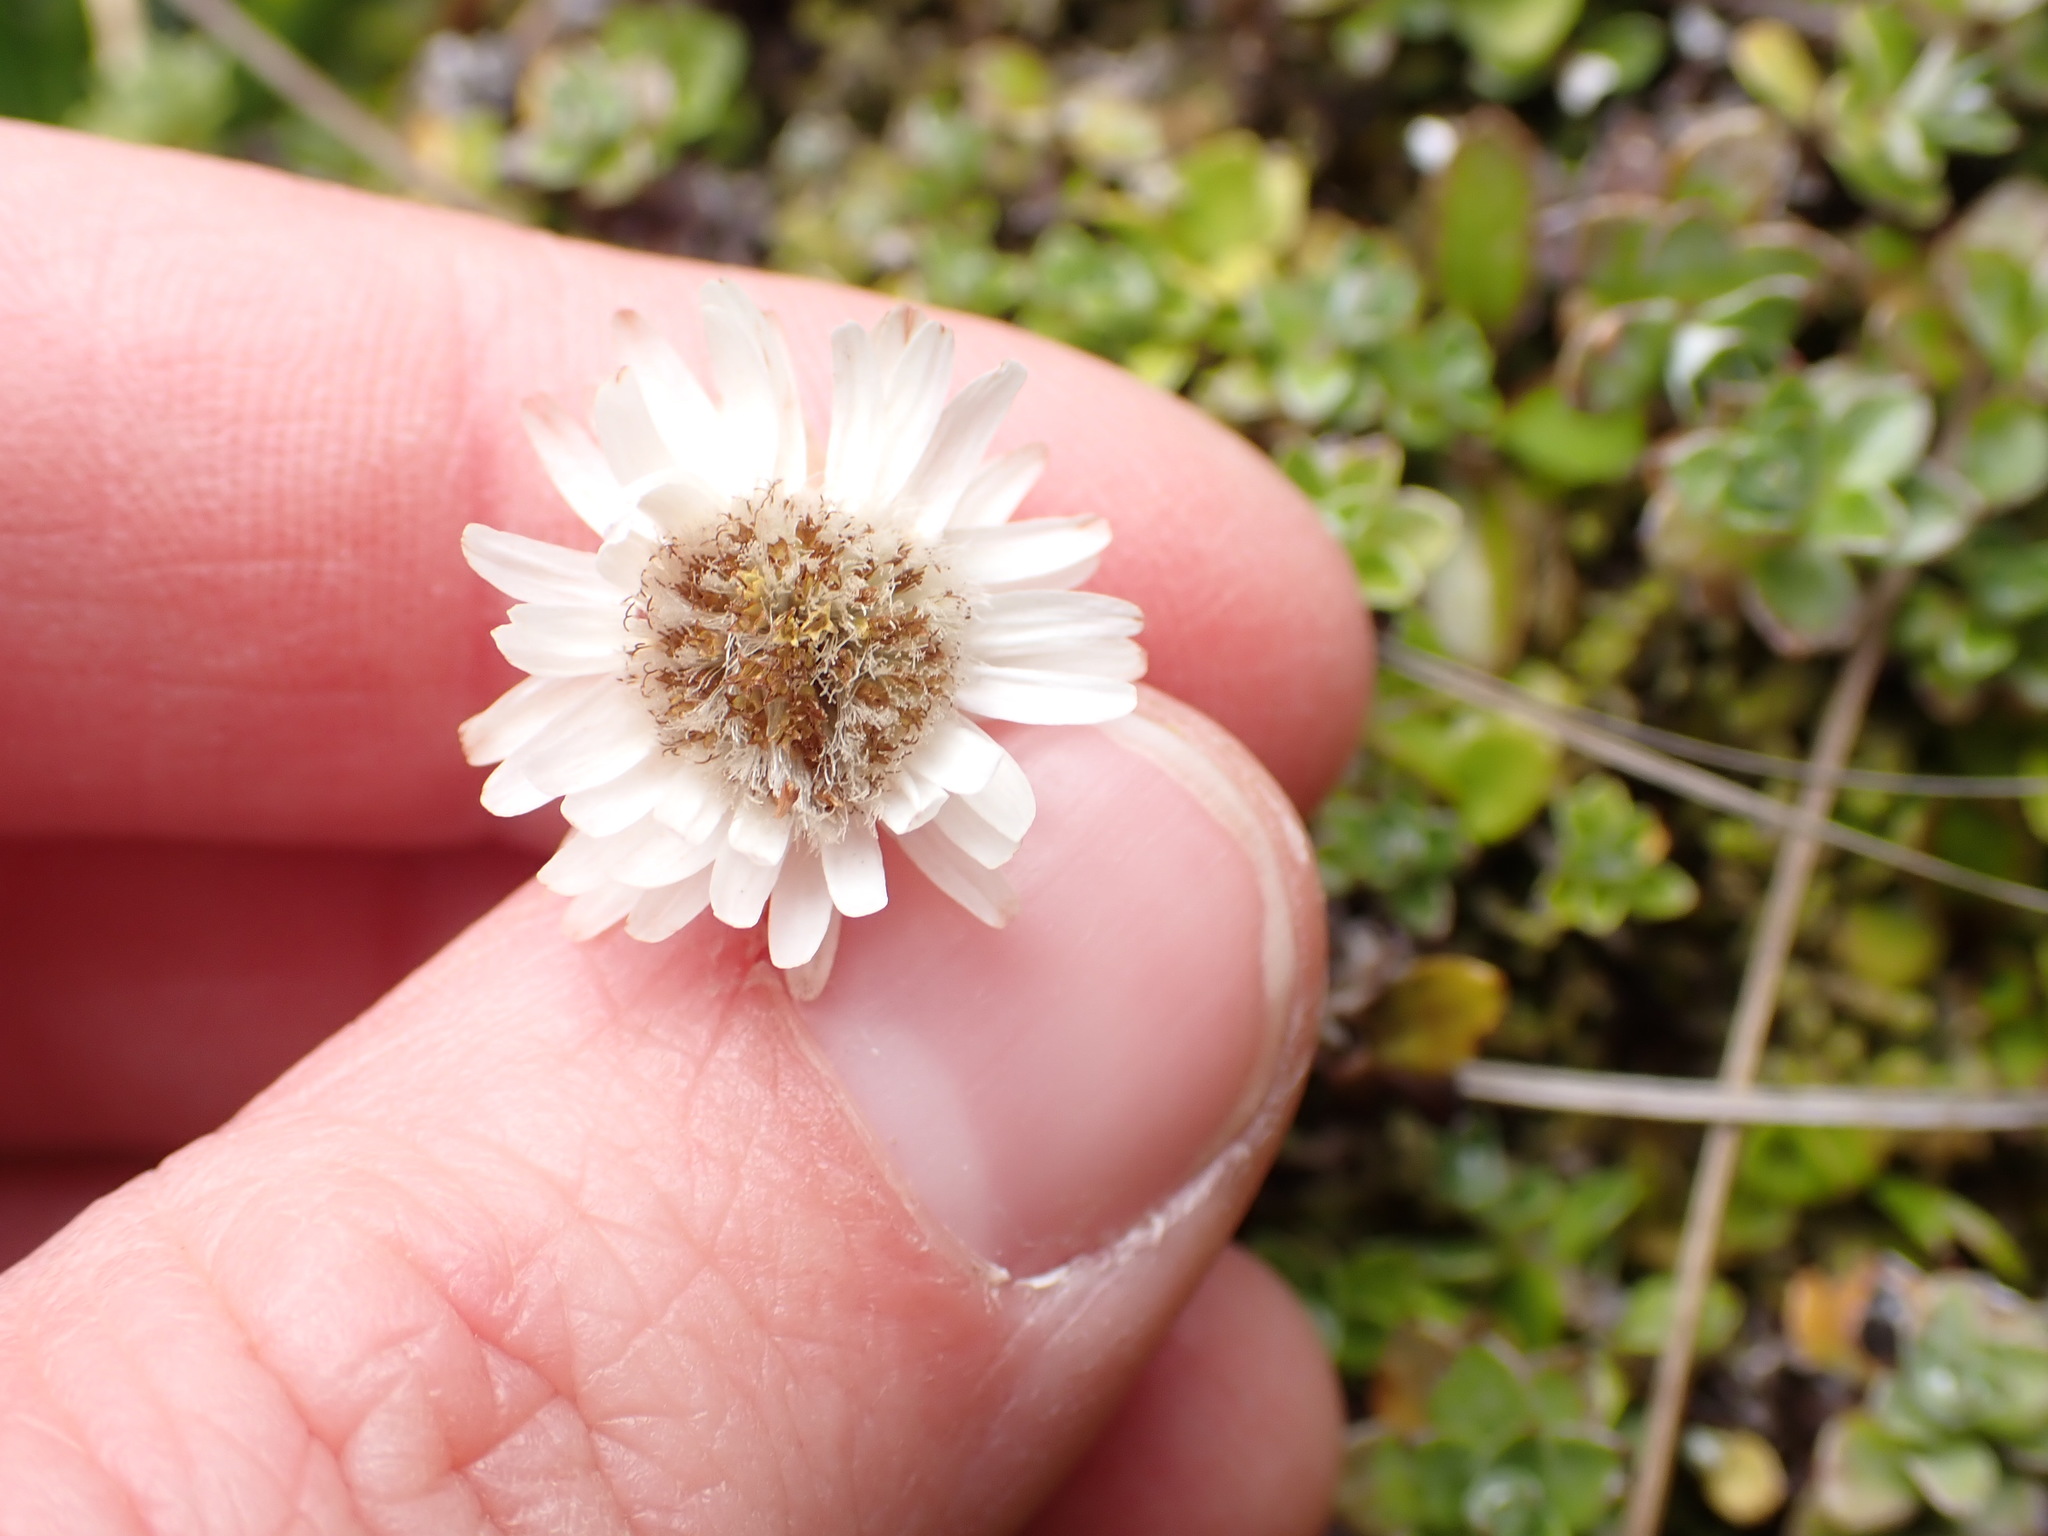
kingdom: Plantae
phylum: Tracheophyta
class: Magnoliopsida
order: Asterales
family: Asteraceae
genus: Anaphalioides
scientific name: Anaphalioides bellidioides
